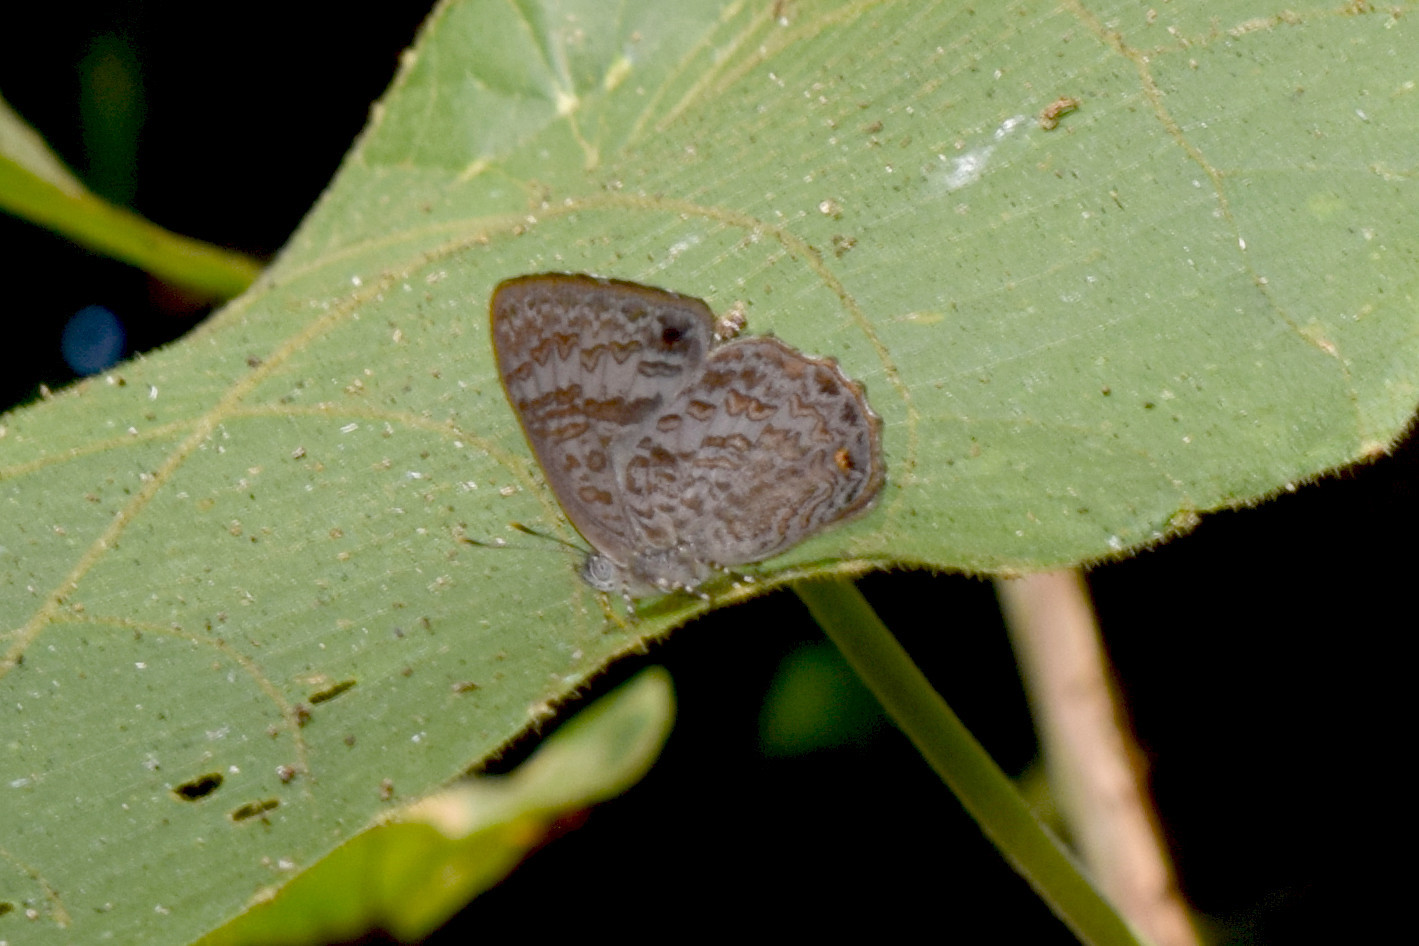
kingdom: Animalia
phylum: Arthropoda
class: Insecta
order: Lepidoptera
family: Lycaenidae
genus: Poritia
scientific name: Poritia hewitsoni
